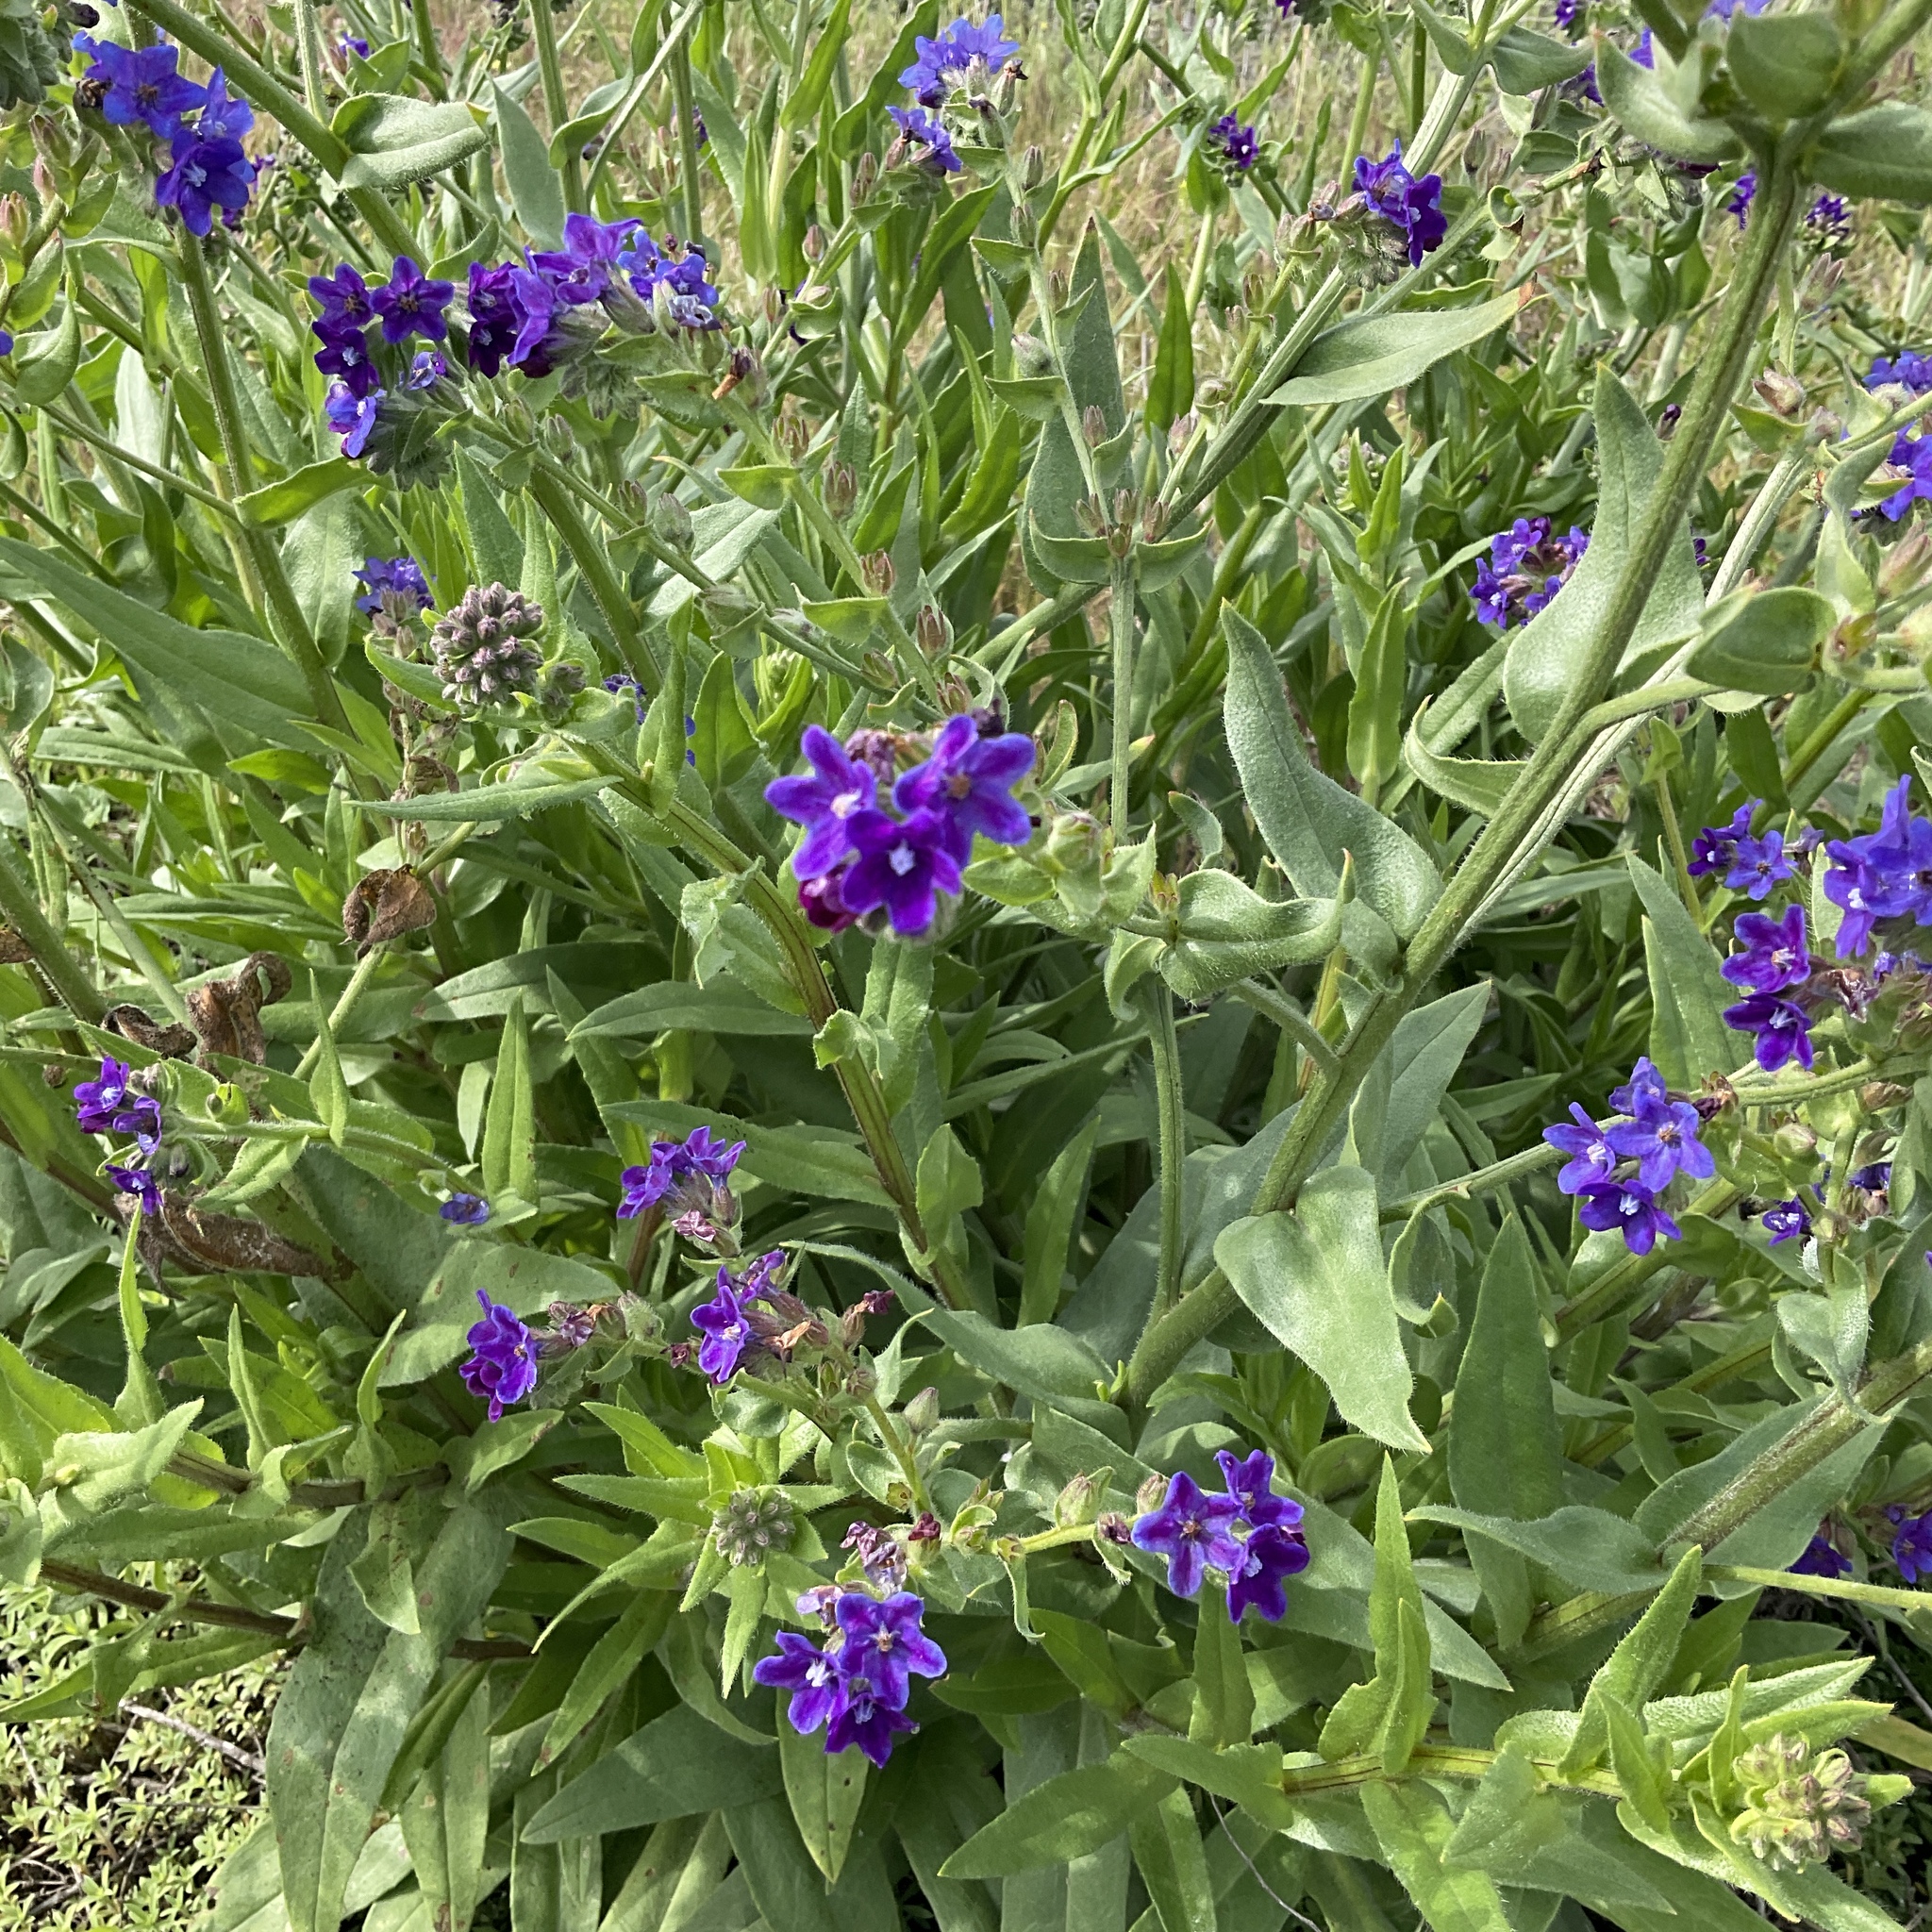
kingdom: Plantae
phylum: Tracheophyta
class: Magnoliopsida
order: Boraginales
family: Boraginaceae
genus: Anchusa
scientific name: Anchusa officinalis
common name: Alkanet
